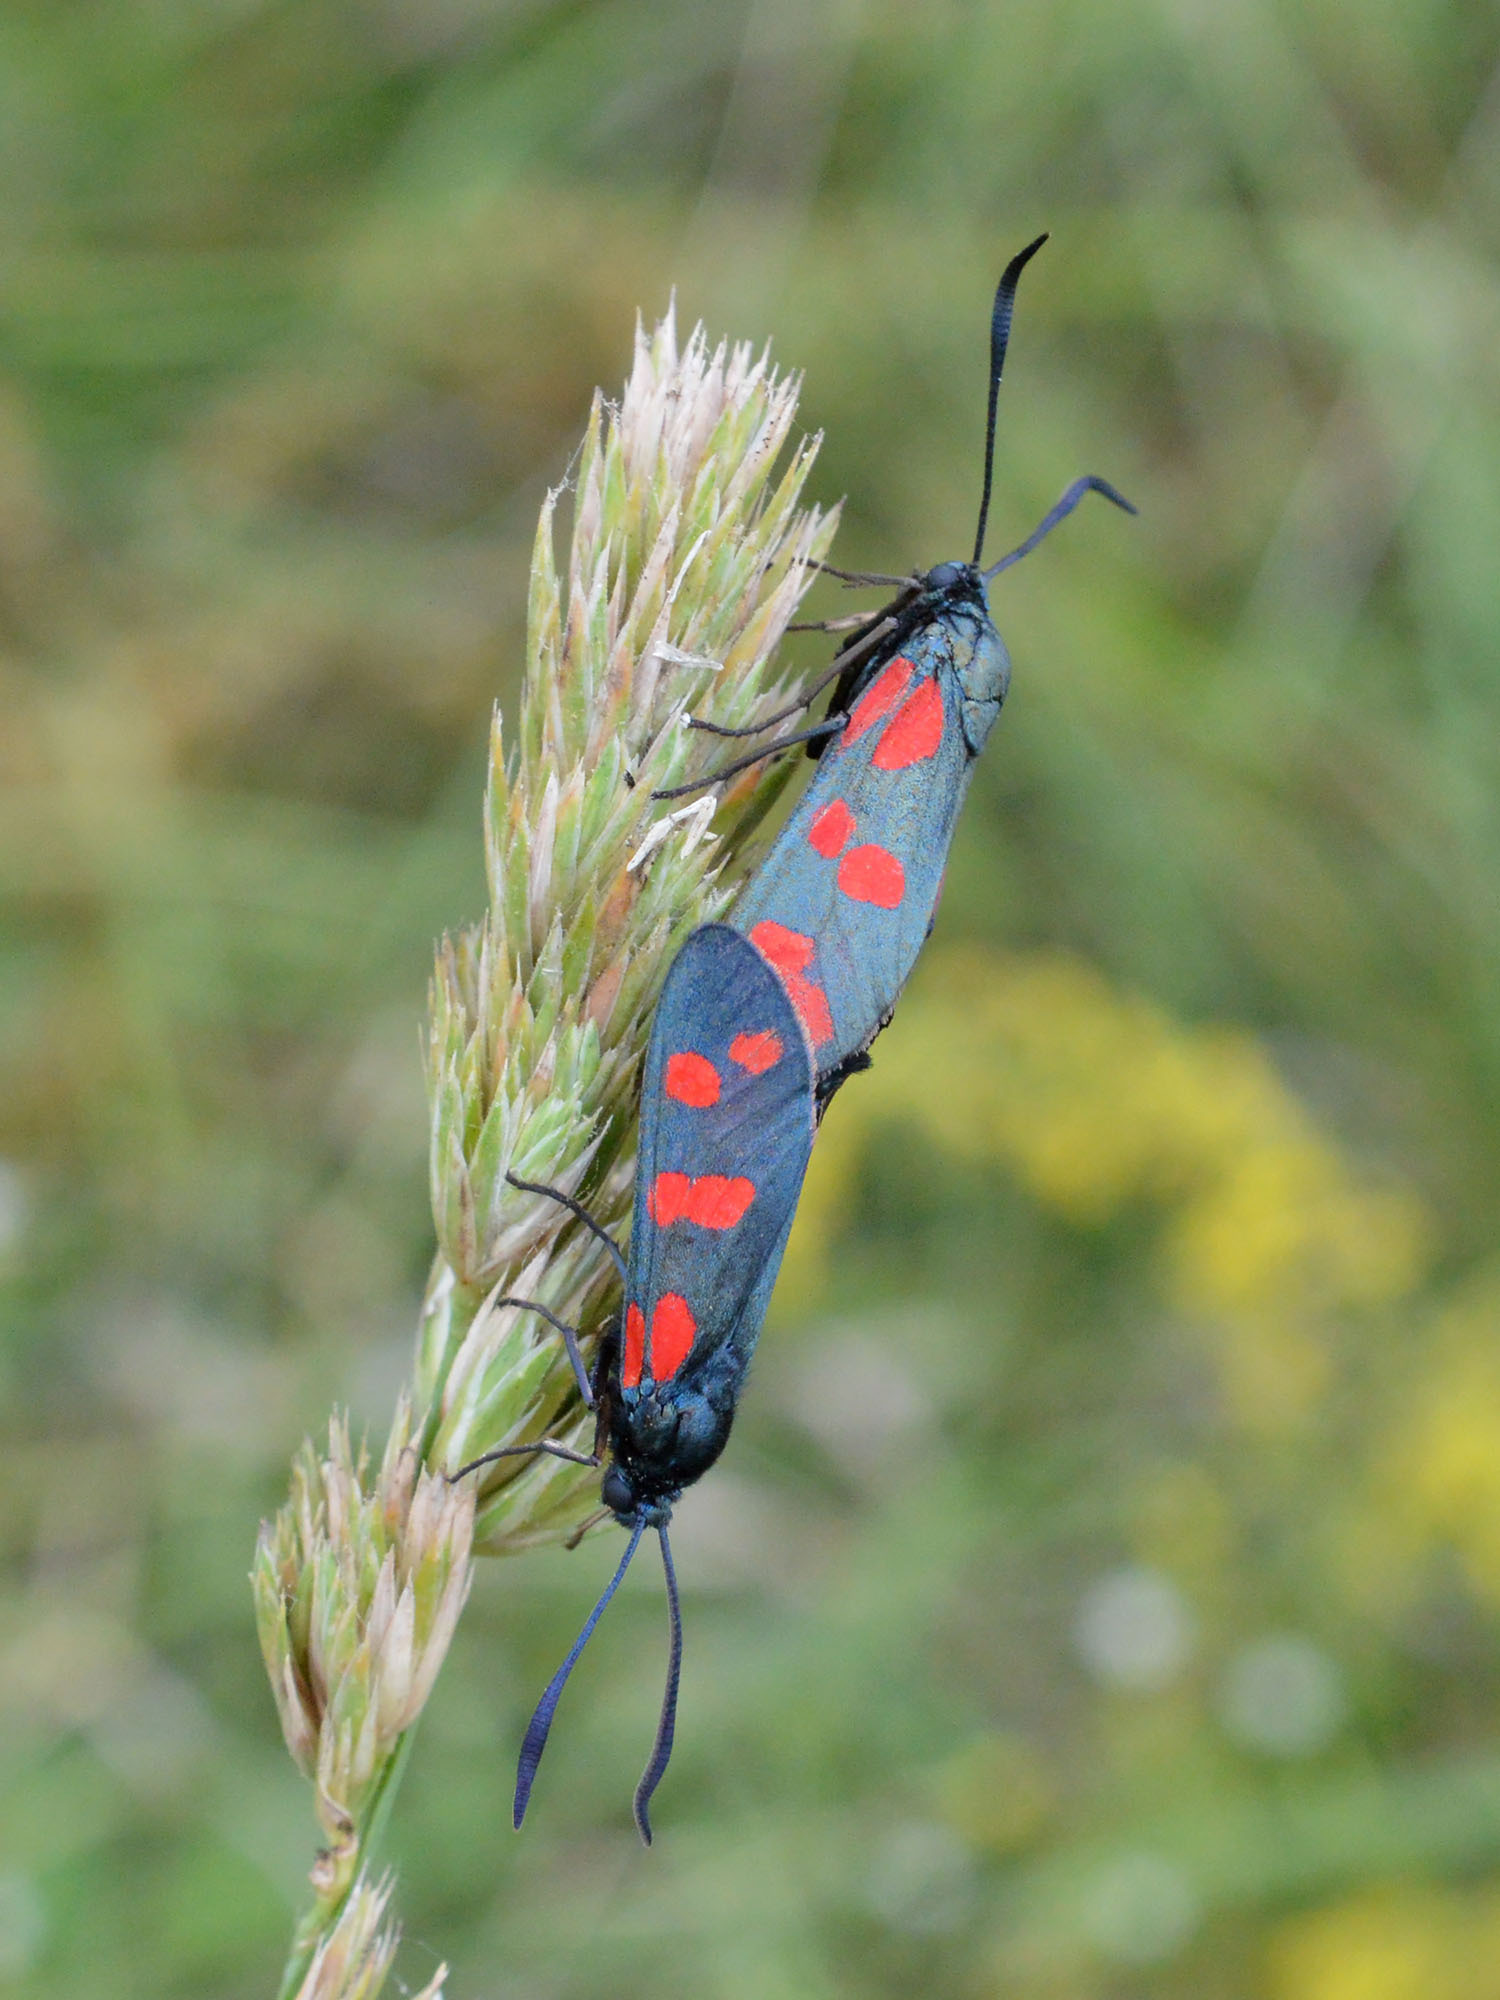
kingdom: Animalia
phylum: Arthropoda
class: Insecta
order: Lepidoptera
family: Zygaenidae
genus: Zygaena
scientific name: Zygaena filipendulae
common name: Six-spot burnet
